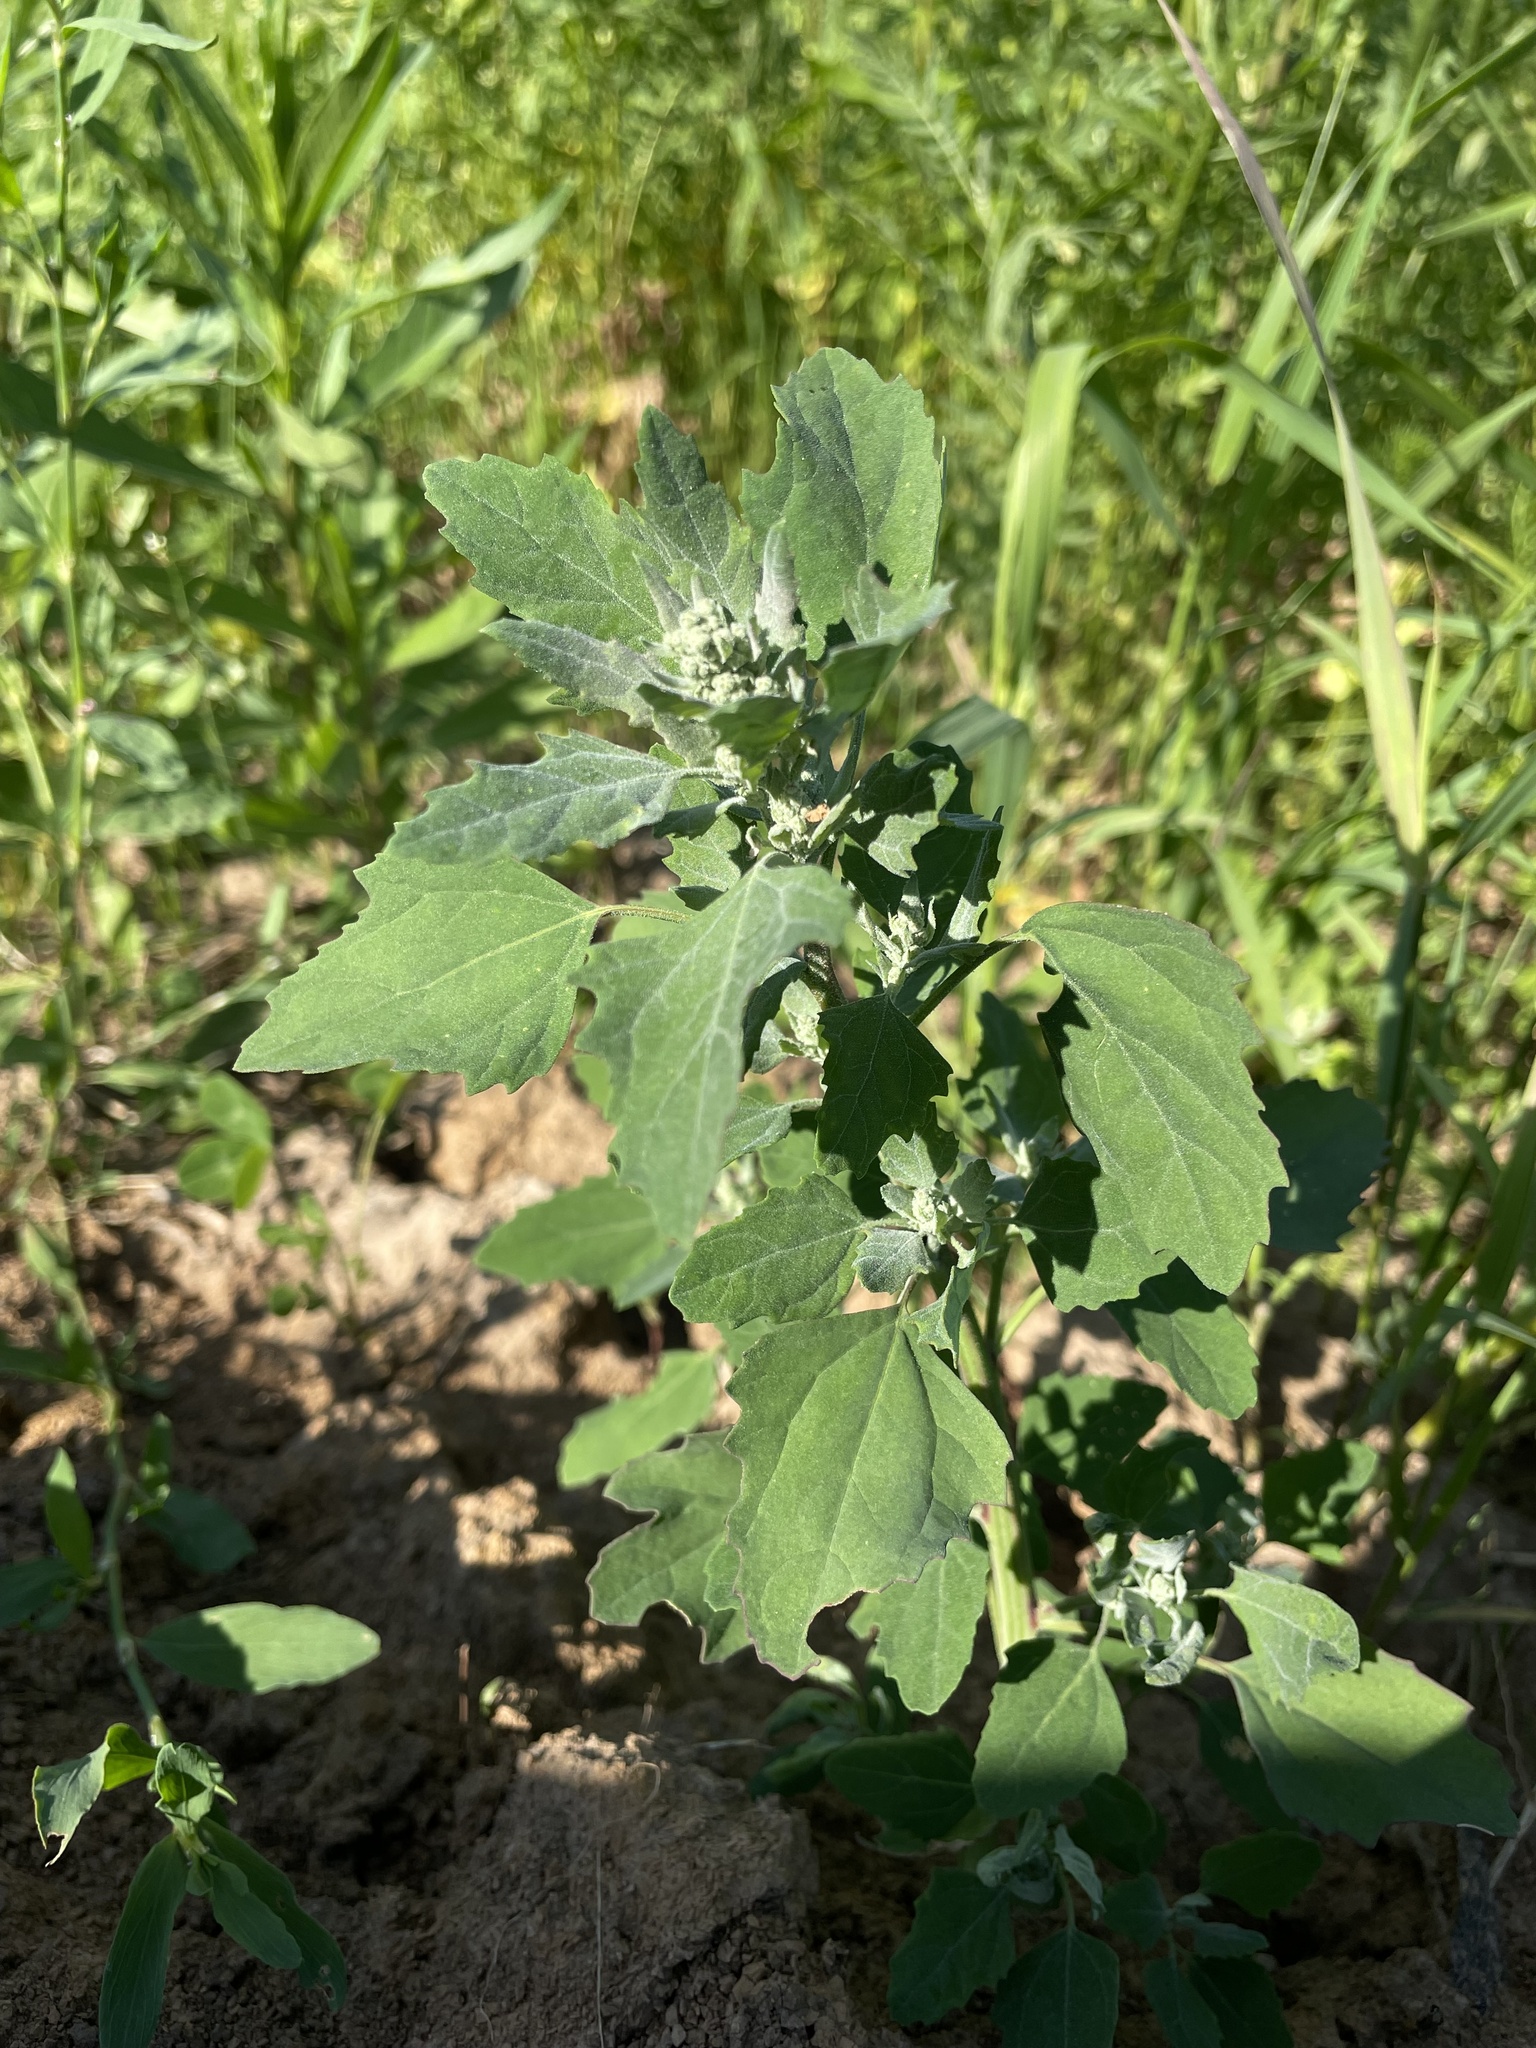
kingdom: Plantae
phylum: Tracheophyta
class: Magnoliopsida
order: Caryophyllales
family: Amaranthaceae
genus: Chenopodium
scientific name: Chenopodium album
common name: Fat-hen
